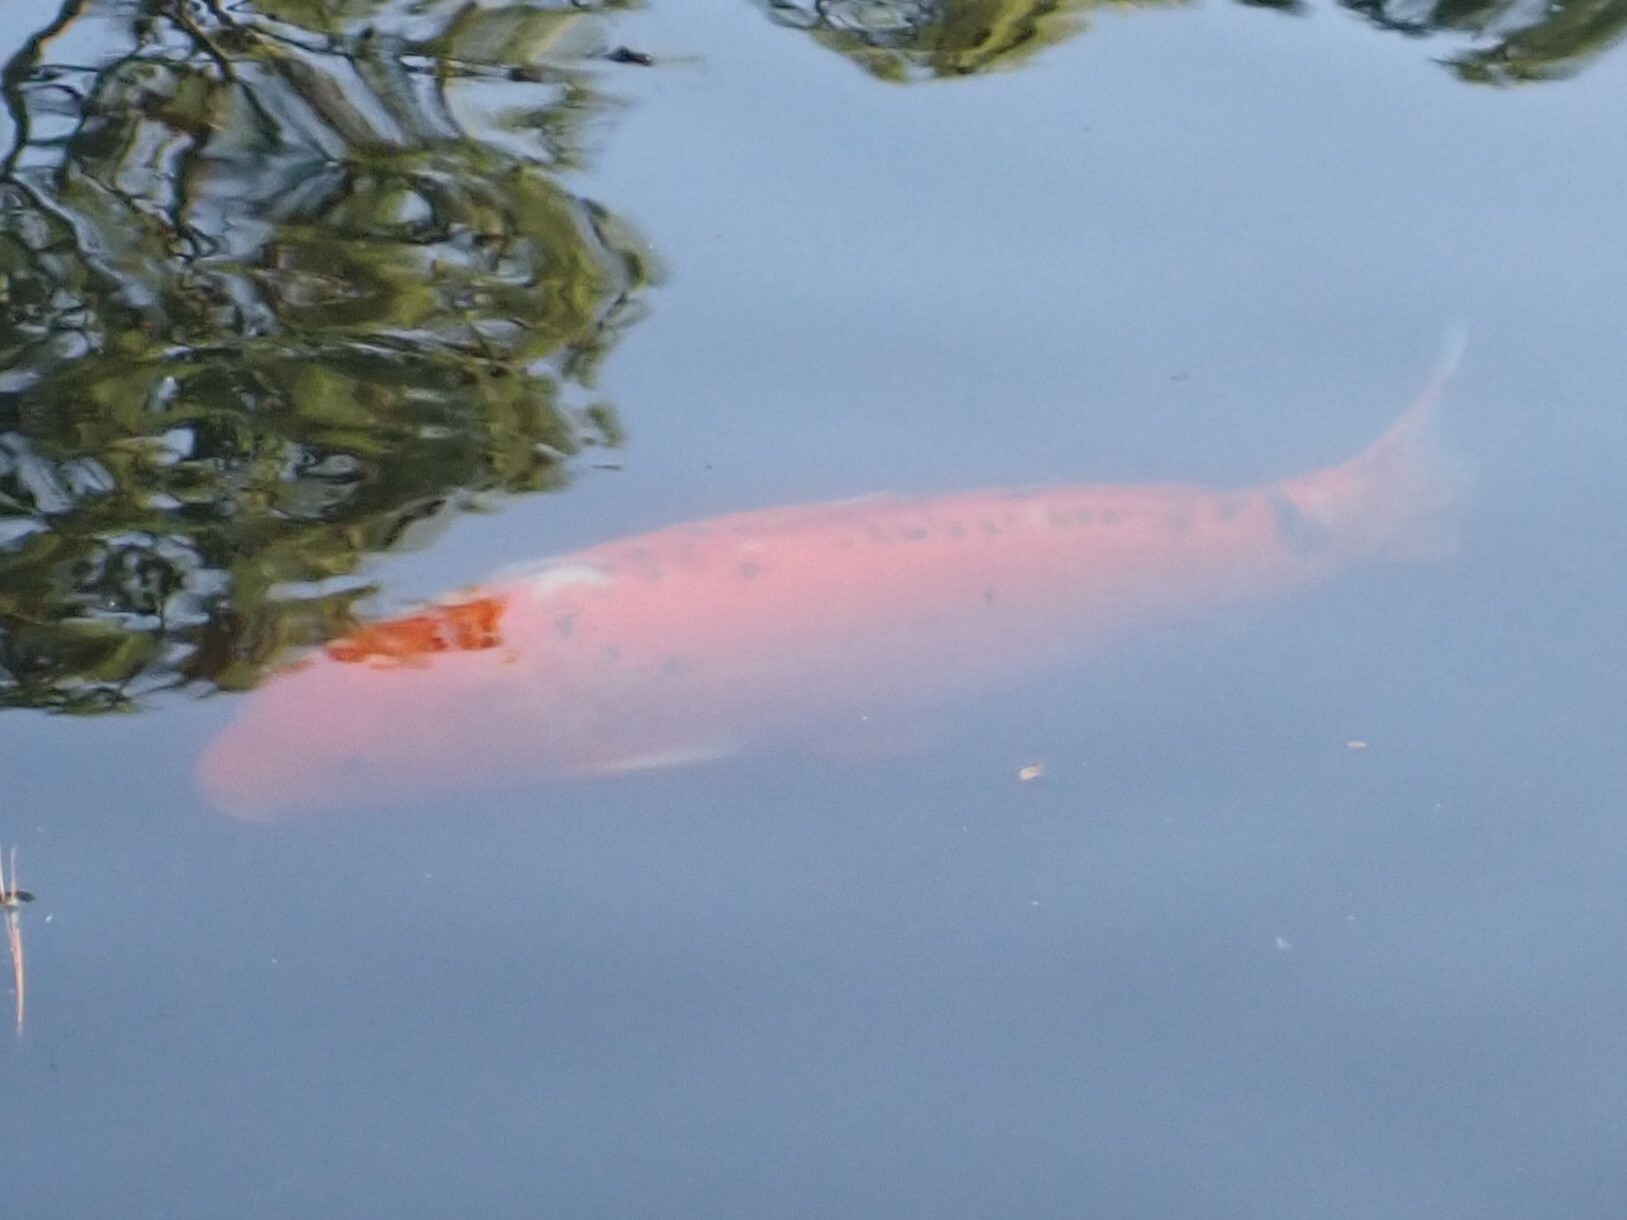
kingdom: Animalia
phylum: Chordata
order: Cypriniformes
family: Cyprinidae
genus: Cyprinus
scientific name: Cyprinus rubrofuscus
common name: Koi
